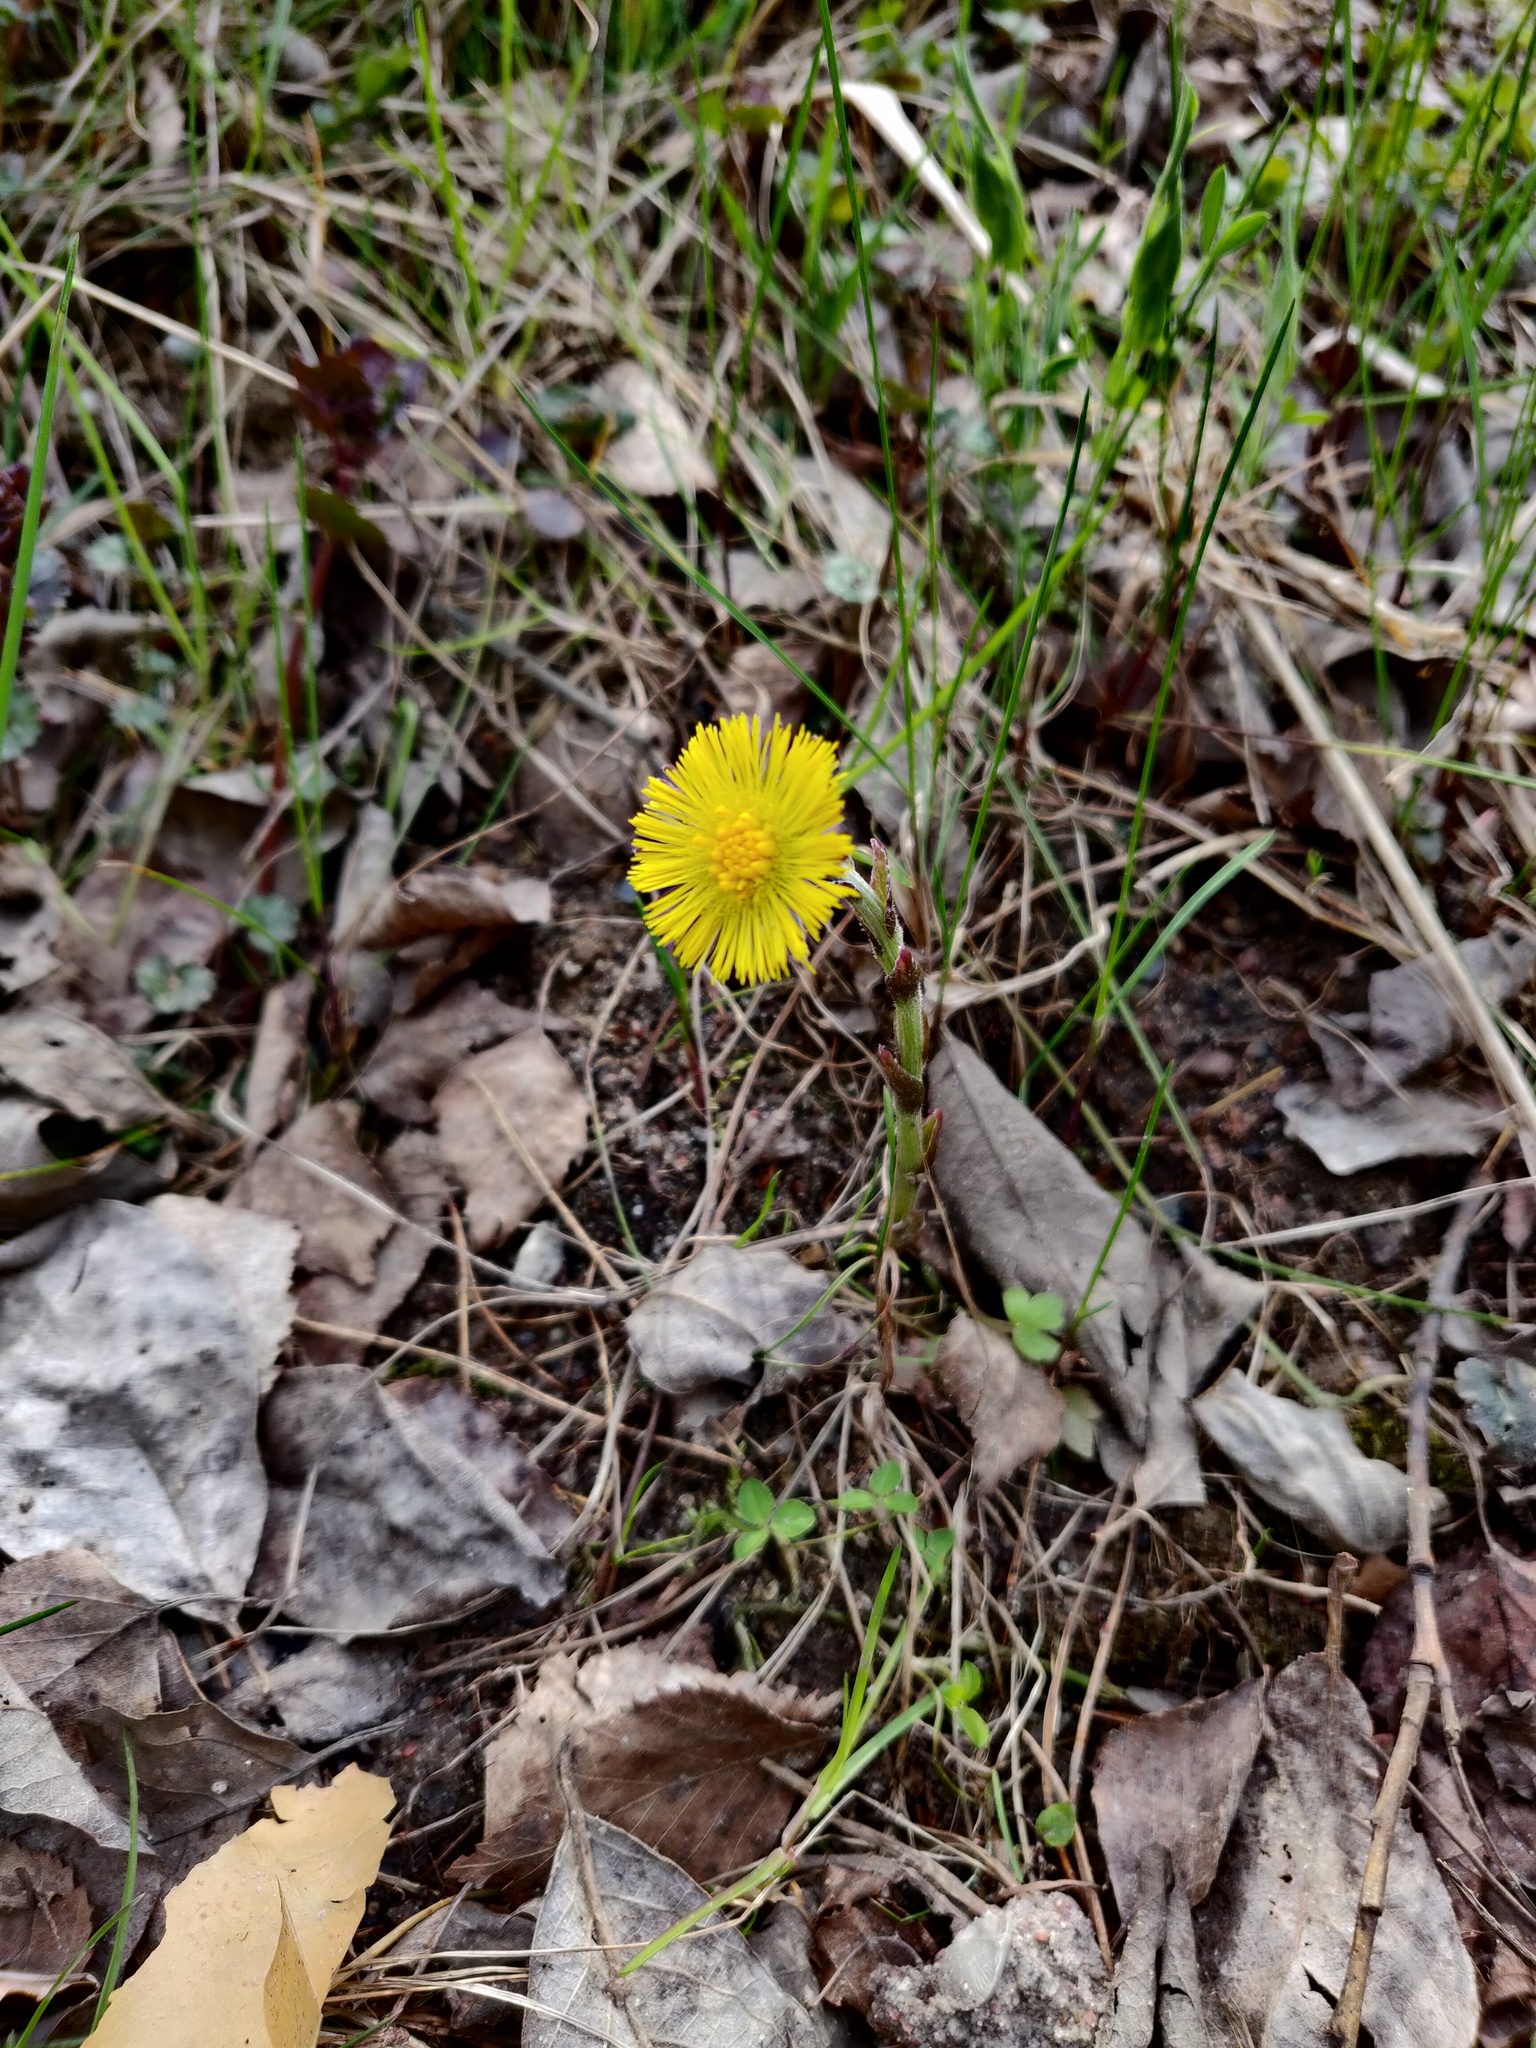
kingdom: Plantae
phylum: Tracheophyta
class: Magnoliopsida
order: Asterales
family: Asteraceae
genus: Tussilago
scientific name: Tussilago farfara
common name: Coltsfoot
